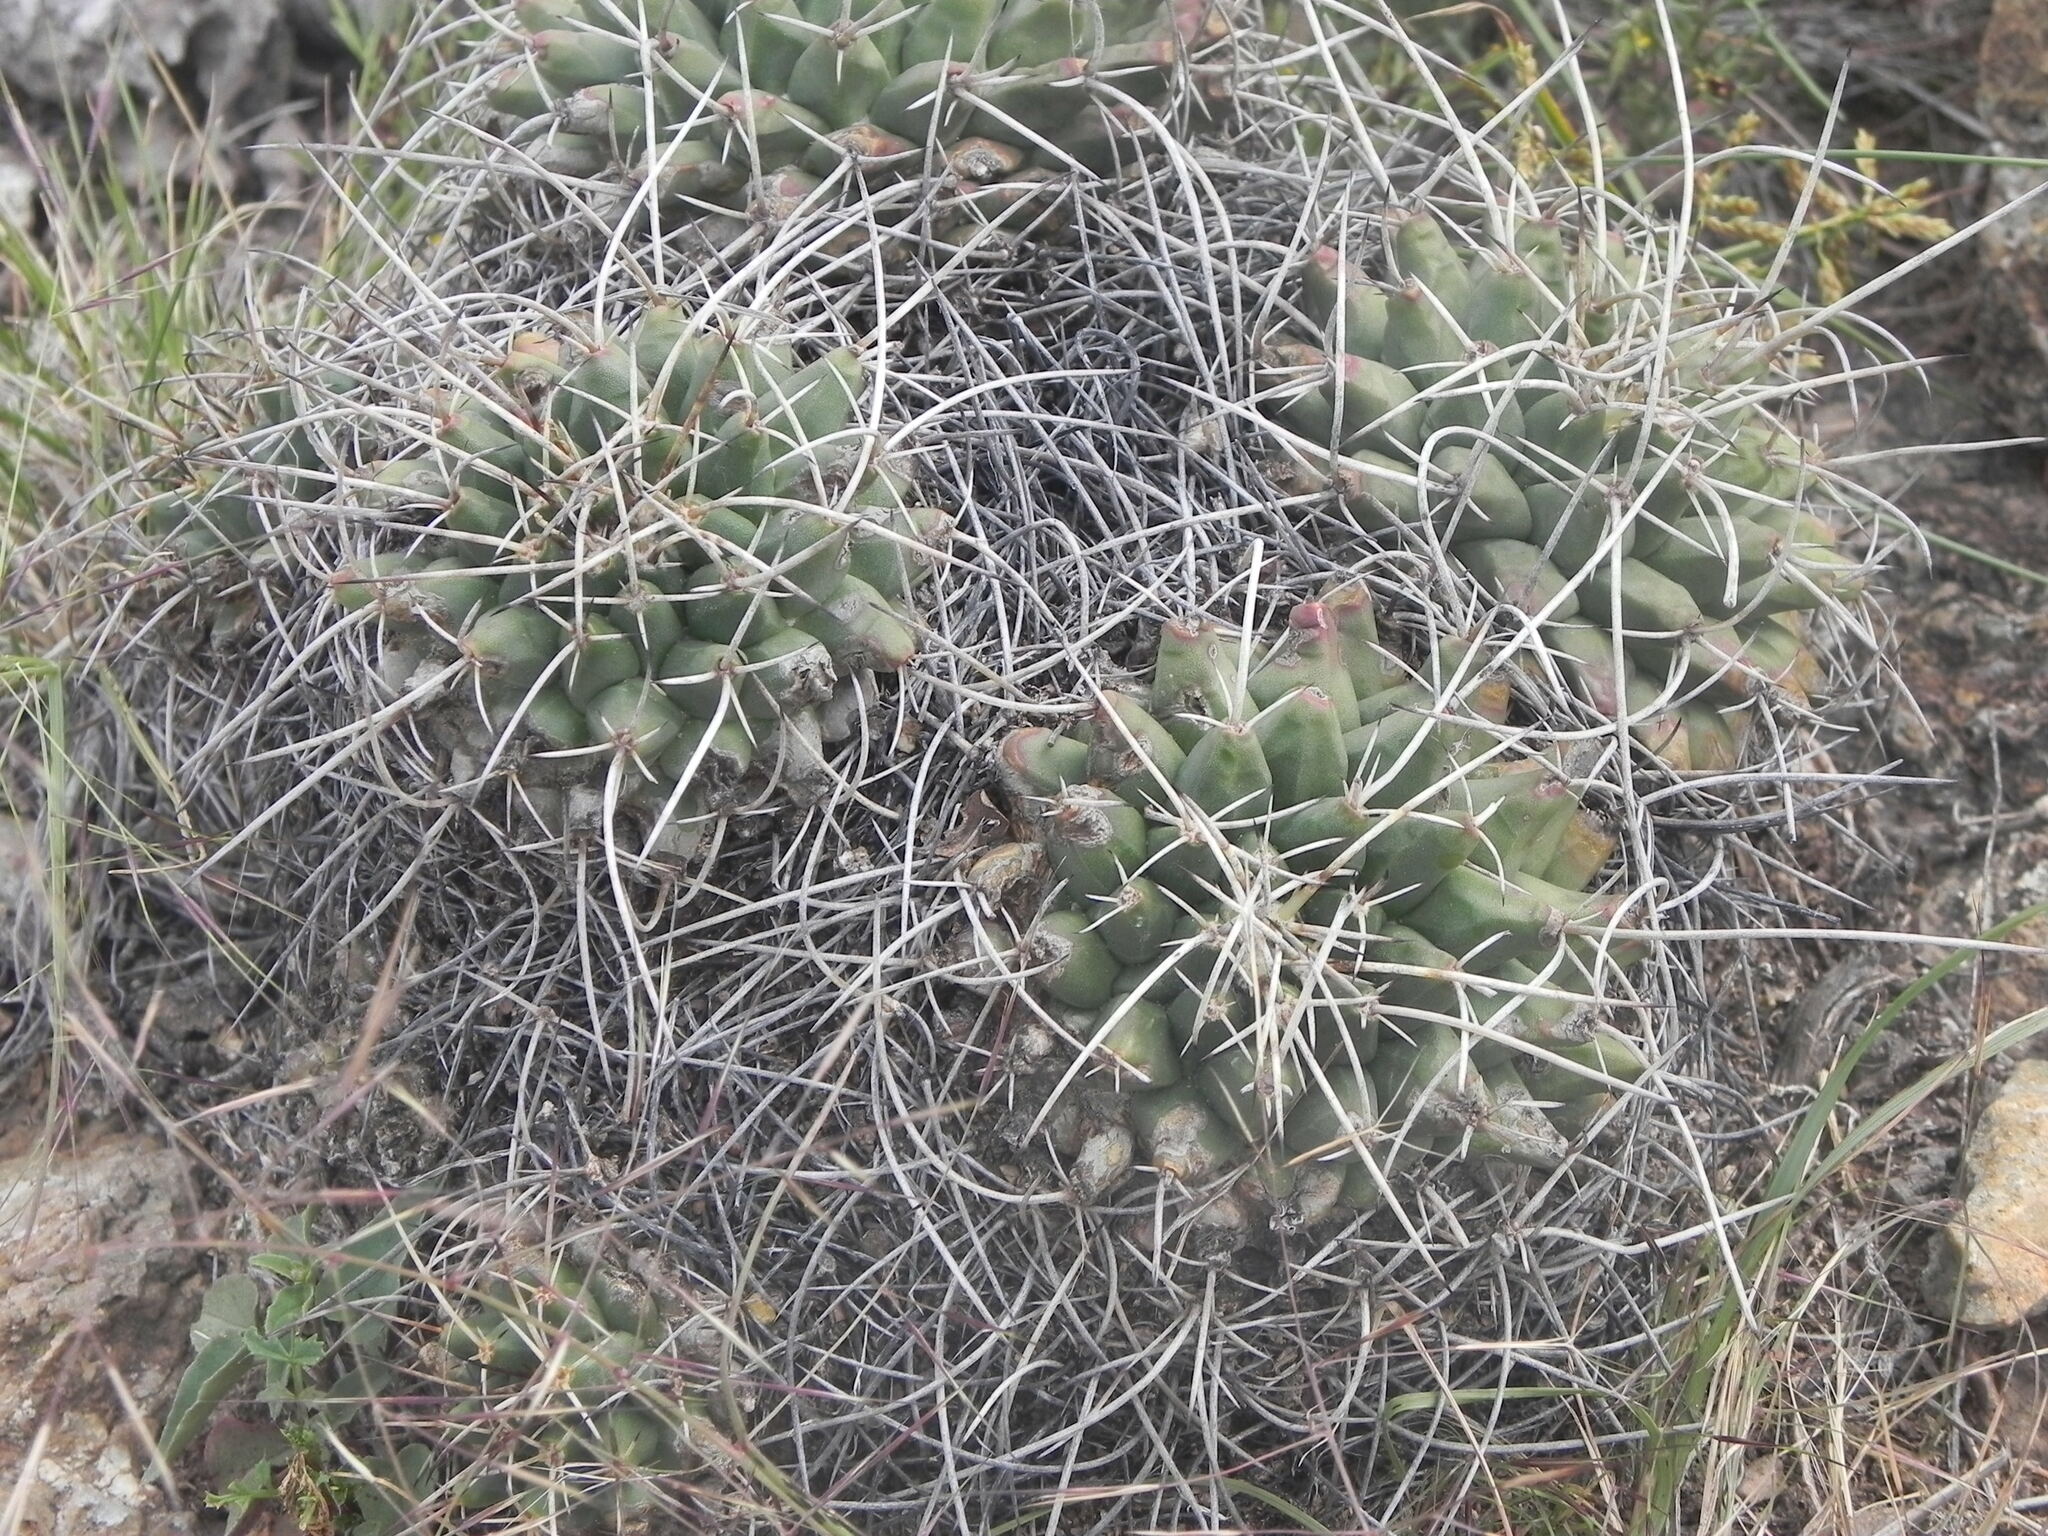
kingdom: Plantae
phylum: Tracheophyta
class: Magnoliopsida
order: Caryophyllales
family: Cactaceae
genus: Mammillaria
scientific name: Mammillaria magnimamma
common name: Mexican pincushion
